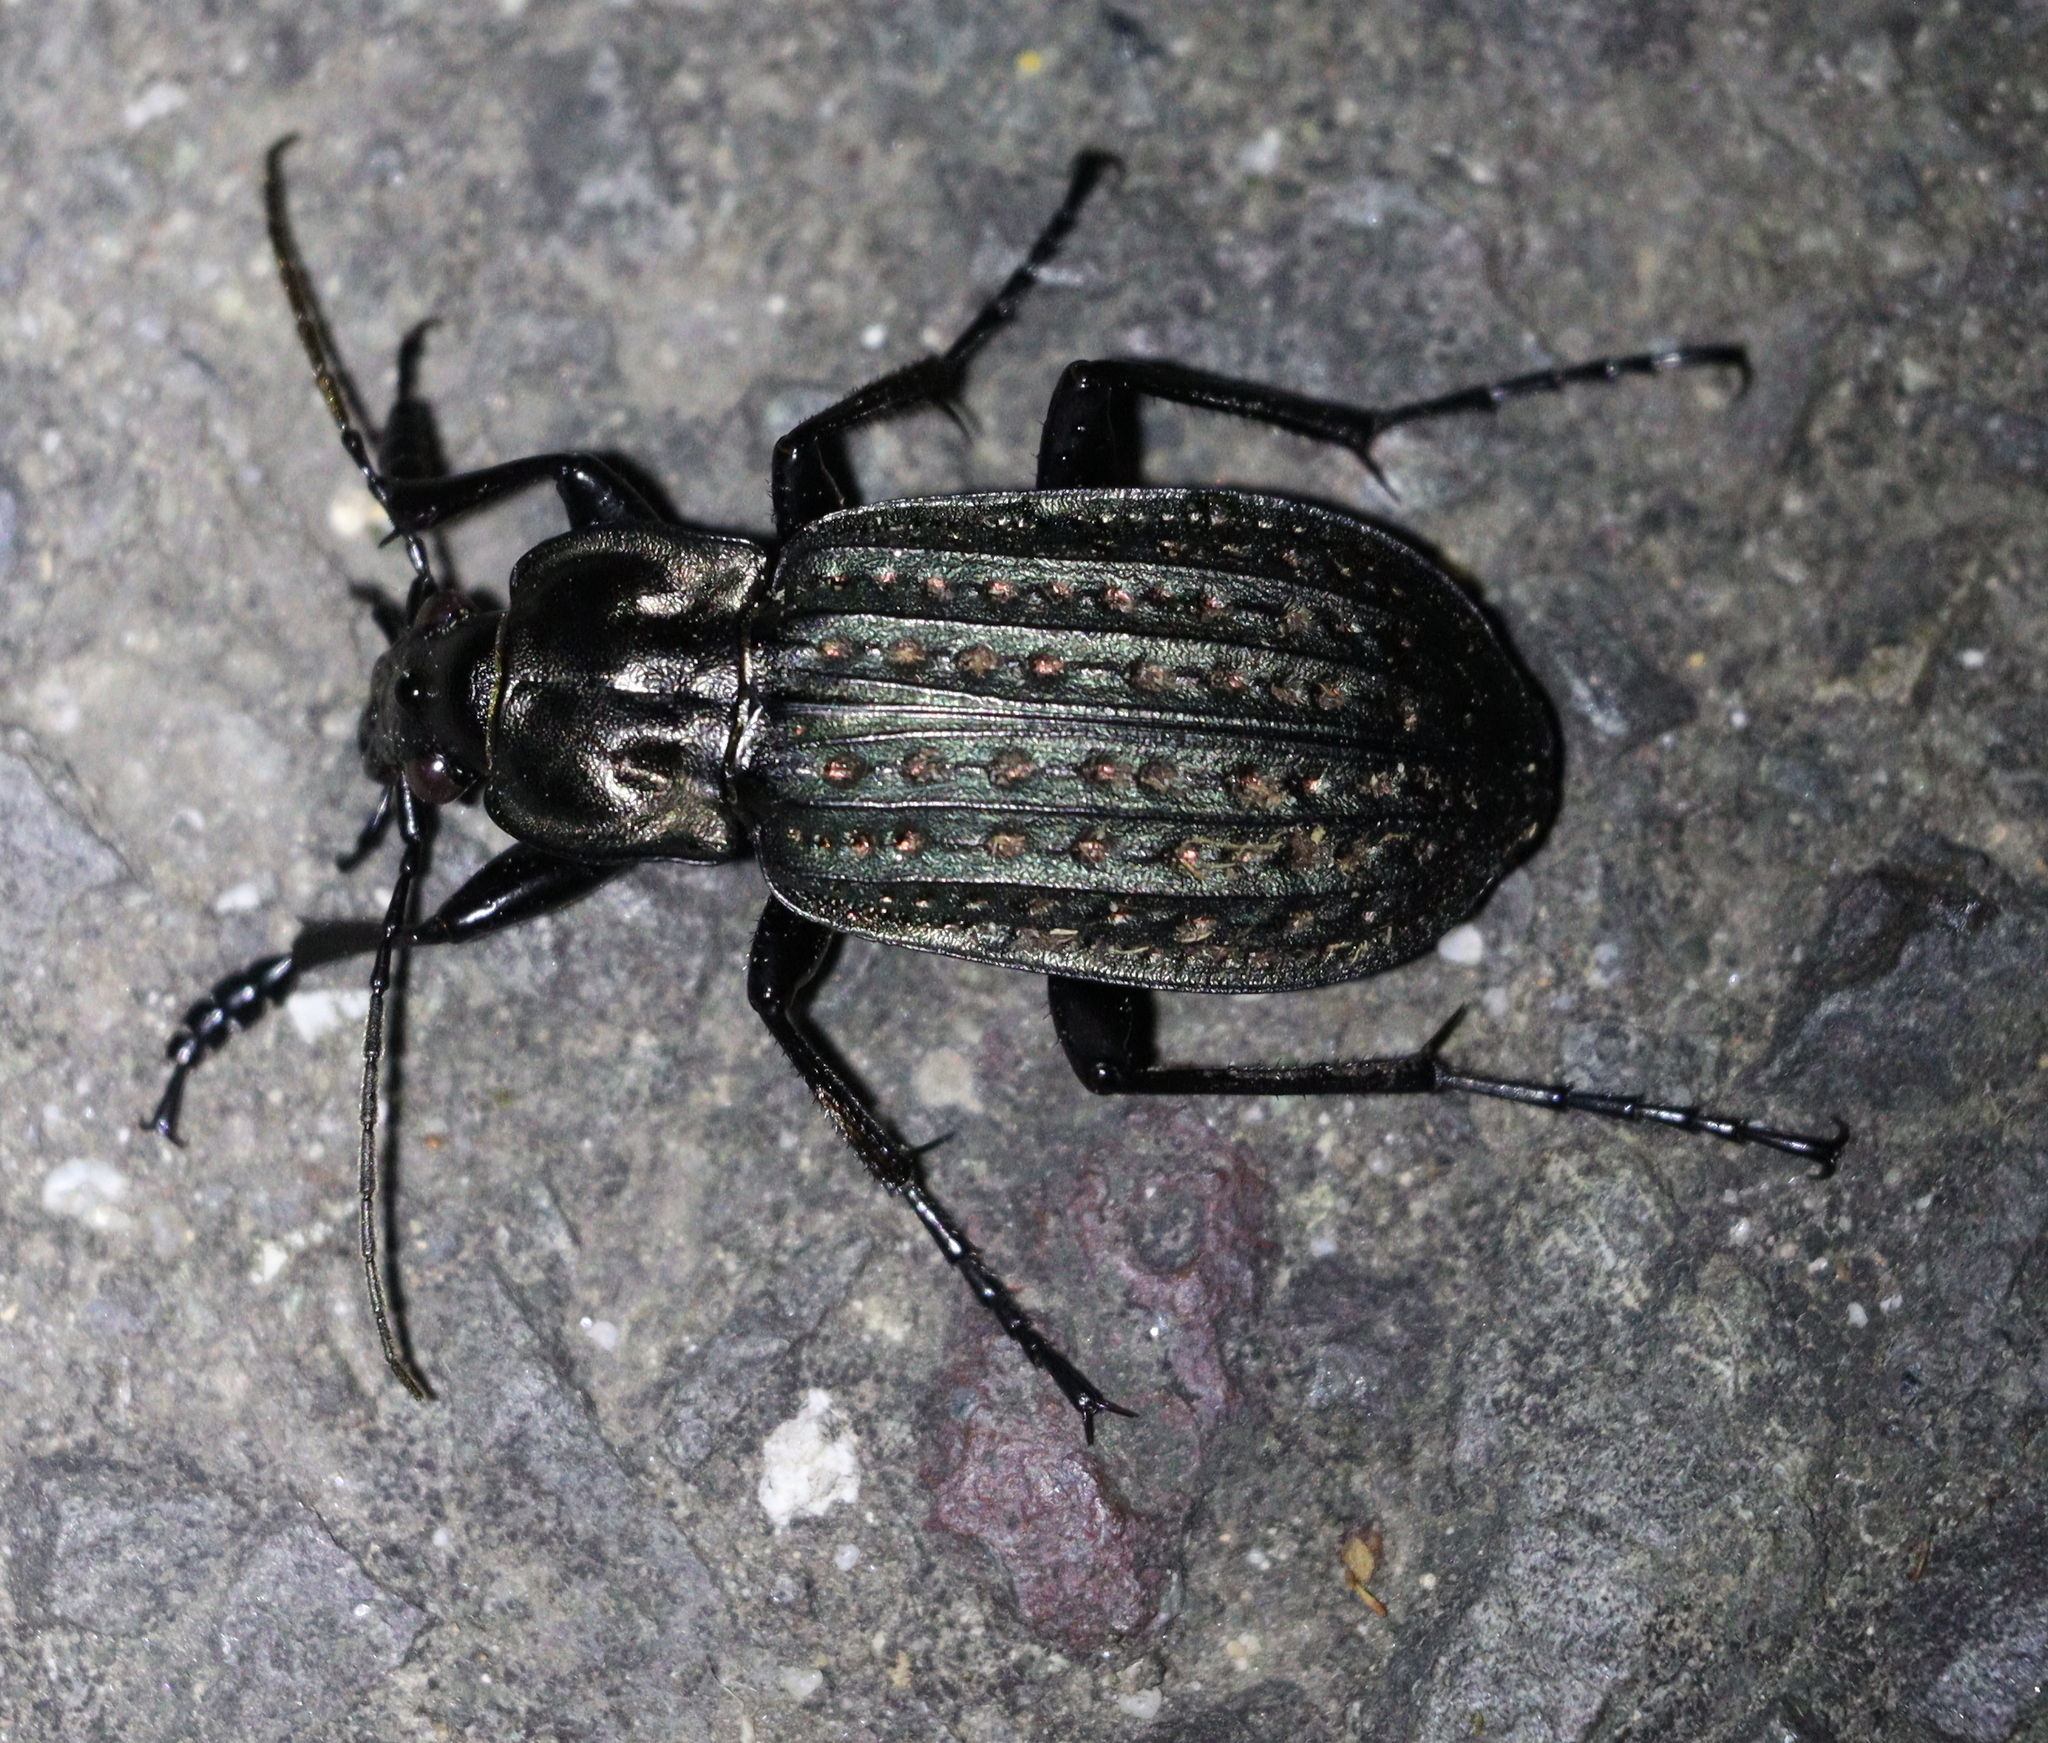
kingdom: Animalia
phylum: Arthropoda
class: Insecta
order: Coleoptera
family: Carabidae
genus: Carabus
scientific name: Carabus clatratus
